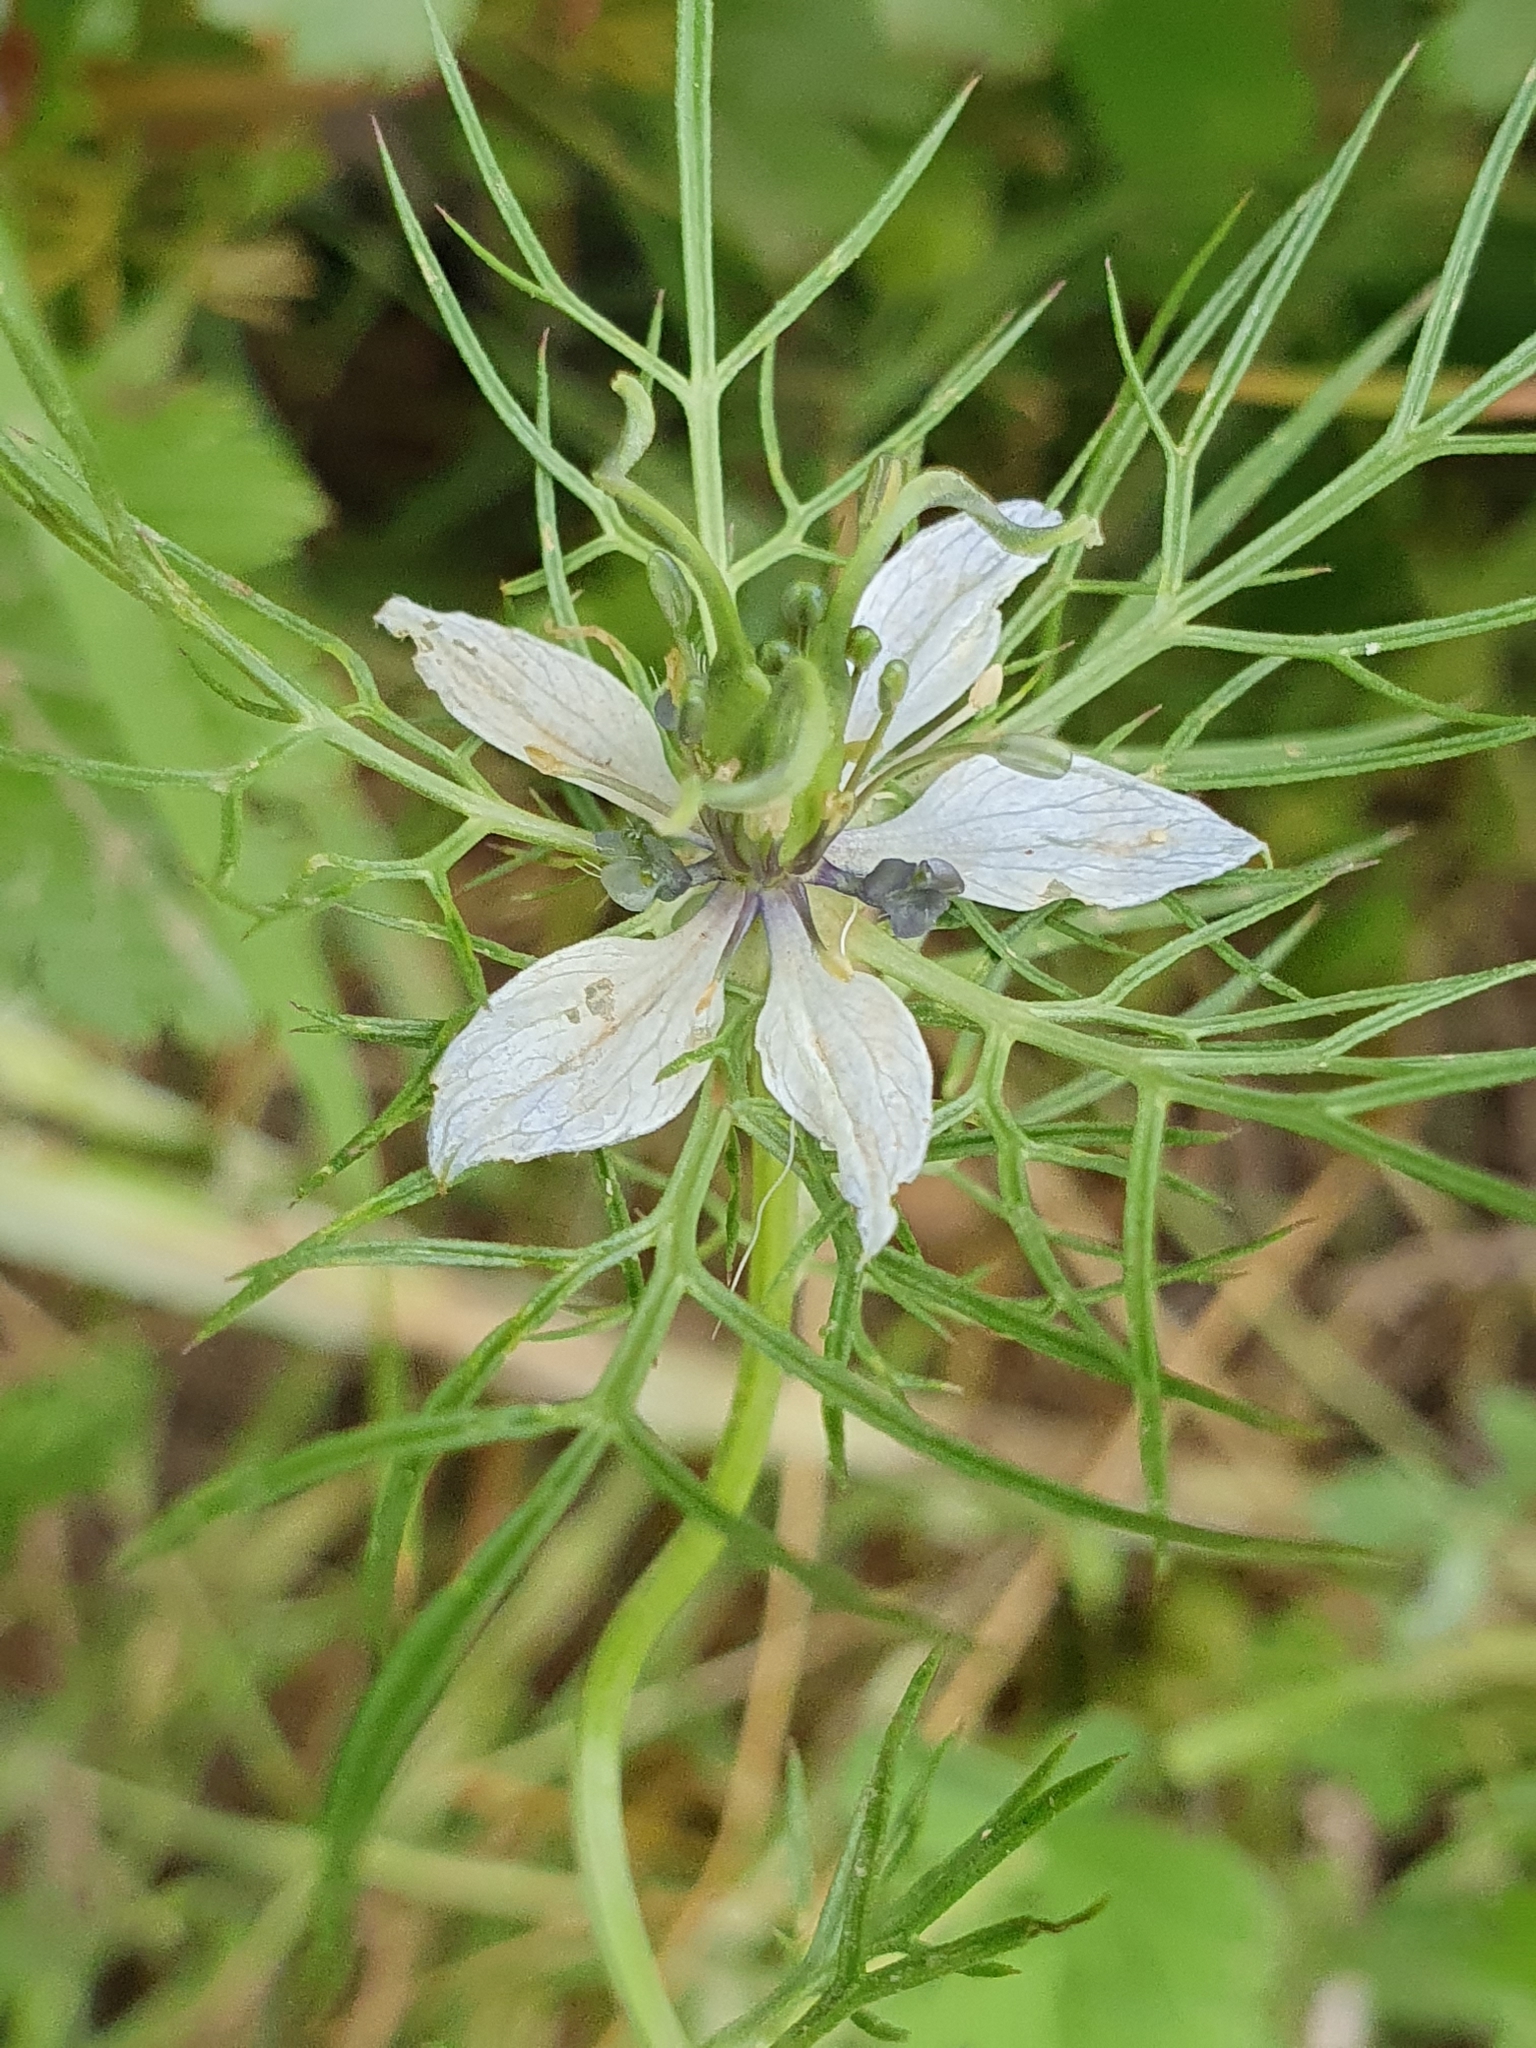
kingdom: Plantae
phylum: Tracheophyta
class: Magnoliopsida
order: Ranunculales
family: Ranunculaceae
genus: Nigella
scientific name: Nigella damascena
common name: Love-in-a-mist
